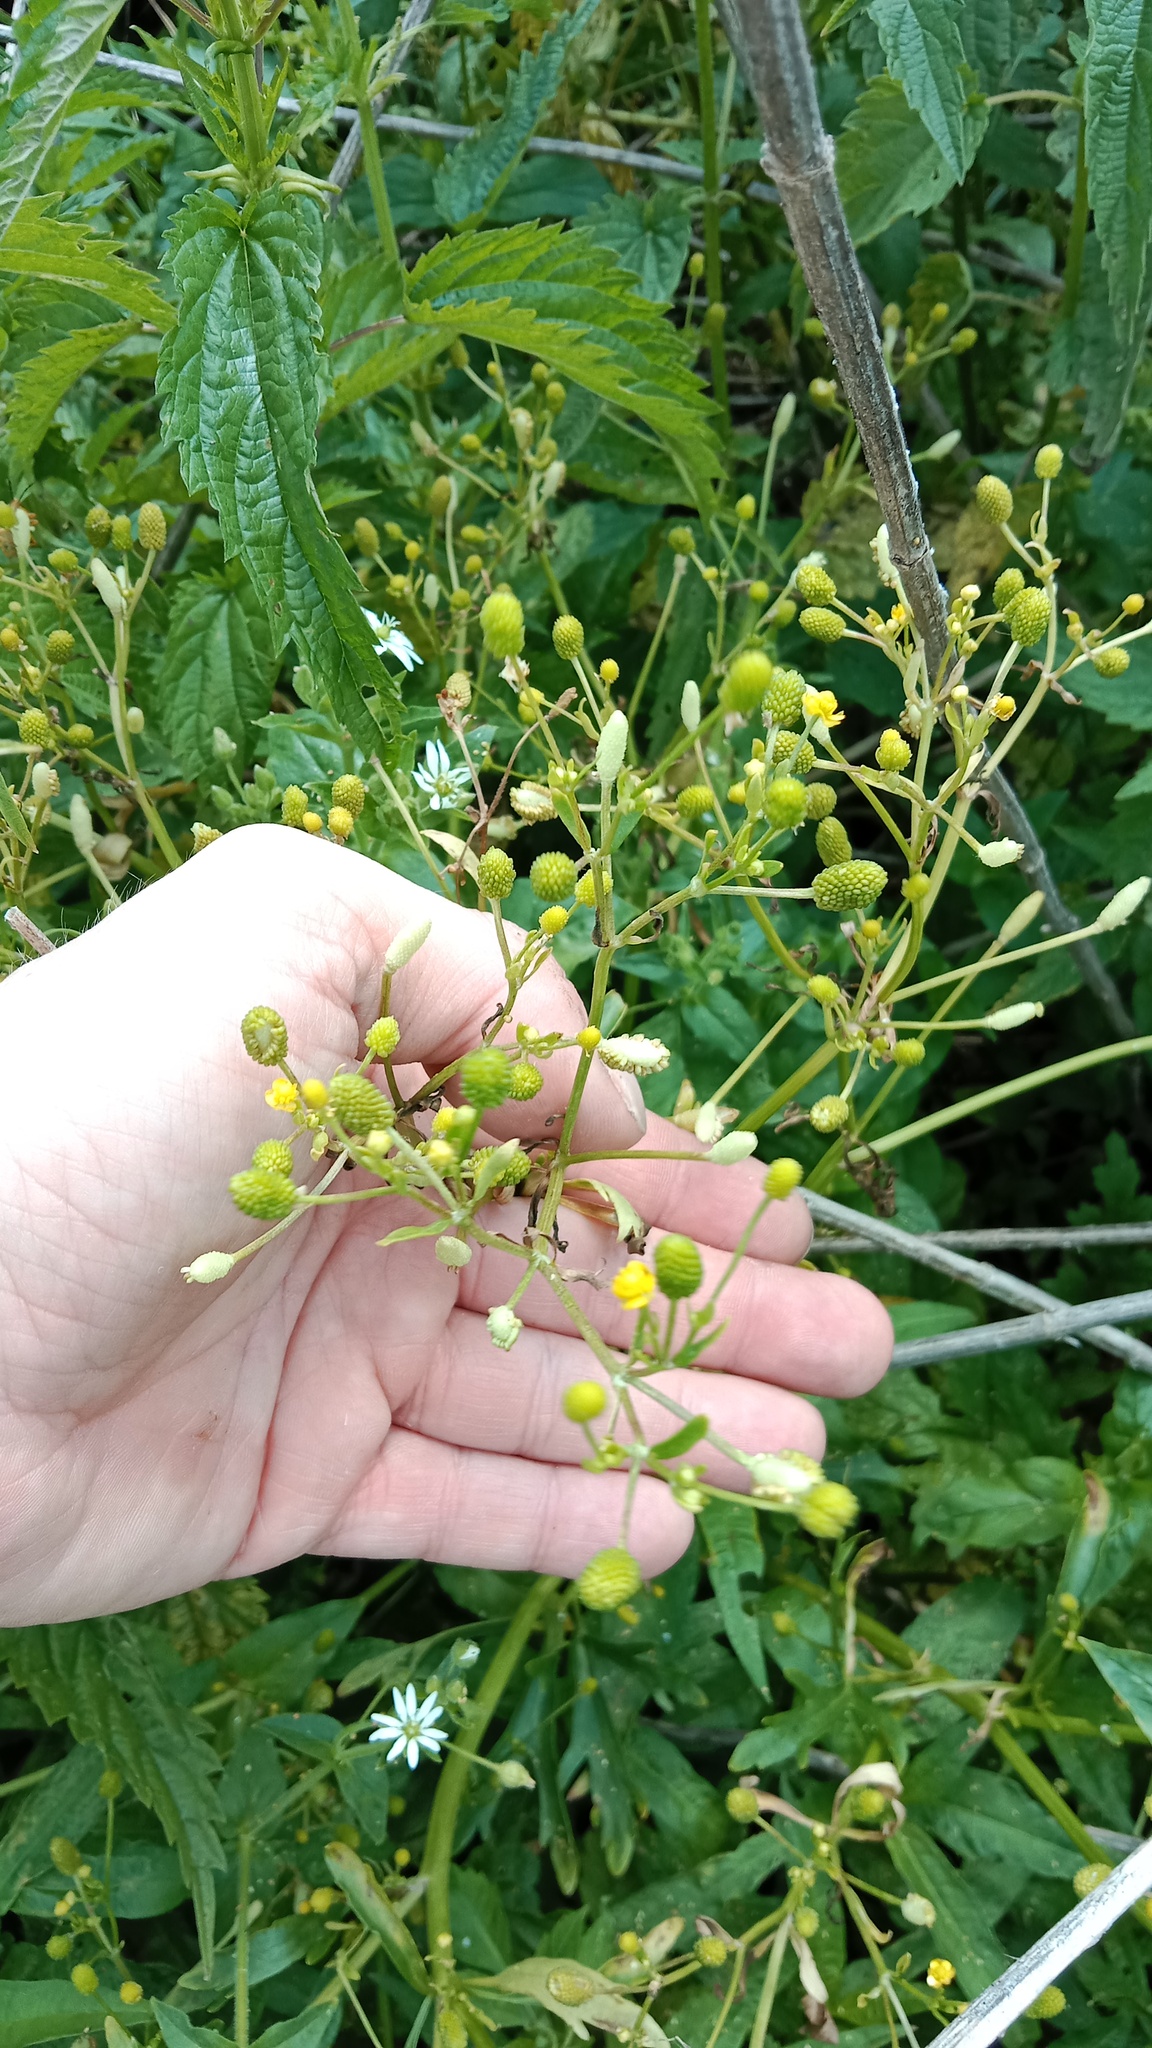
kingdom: Plantae
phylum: Tracheophyta
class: Magnoliopsida
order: Ranunculales
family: Ranunculaceae
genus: Ranunculus
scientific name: Ranunculus sceleratus
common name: Celery-leaved buttercup
